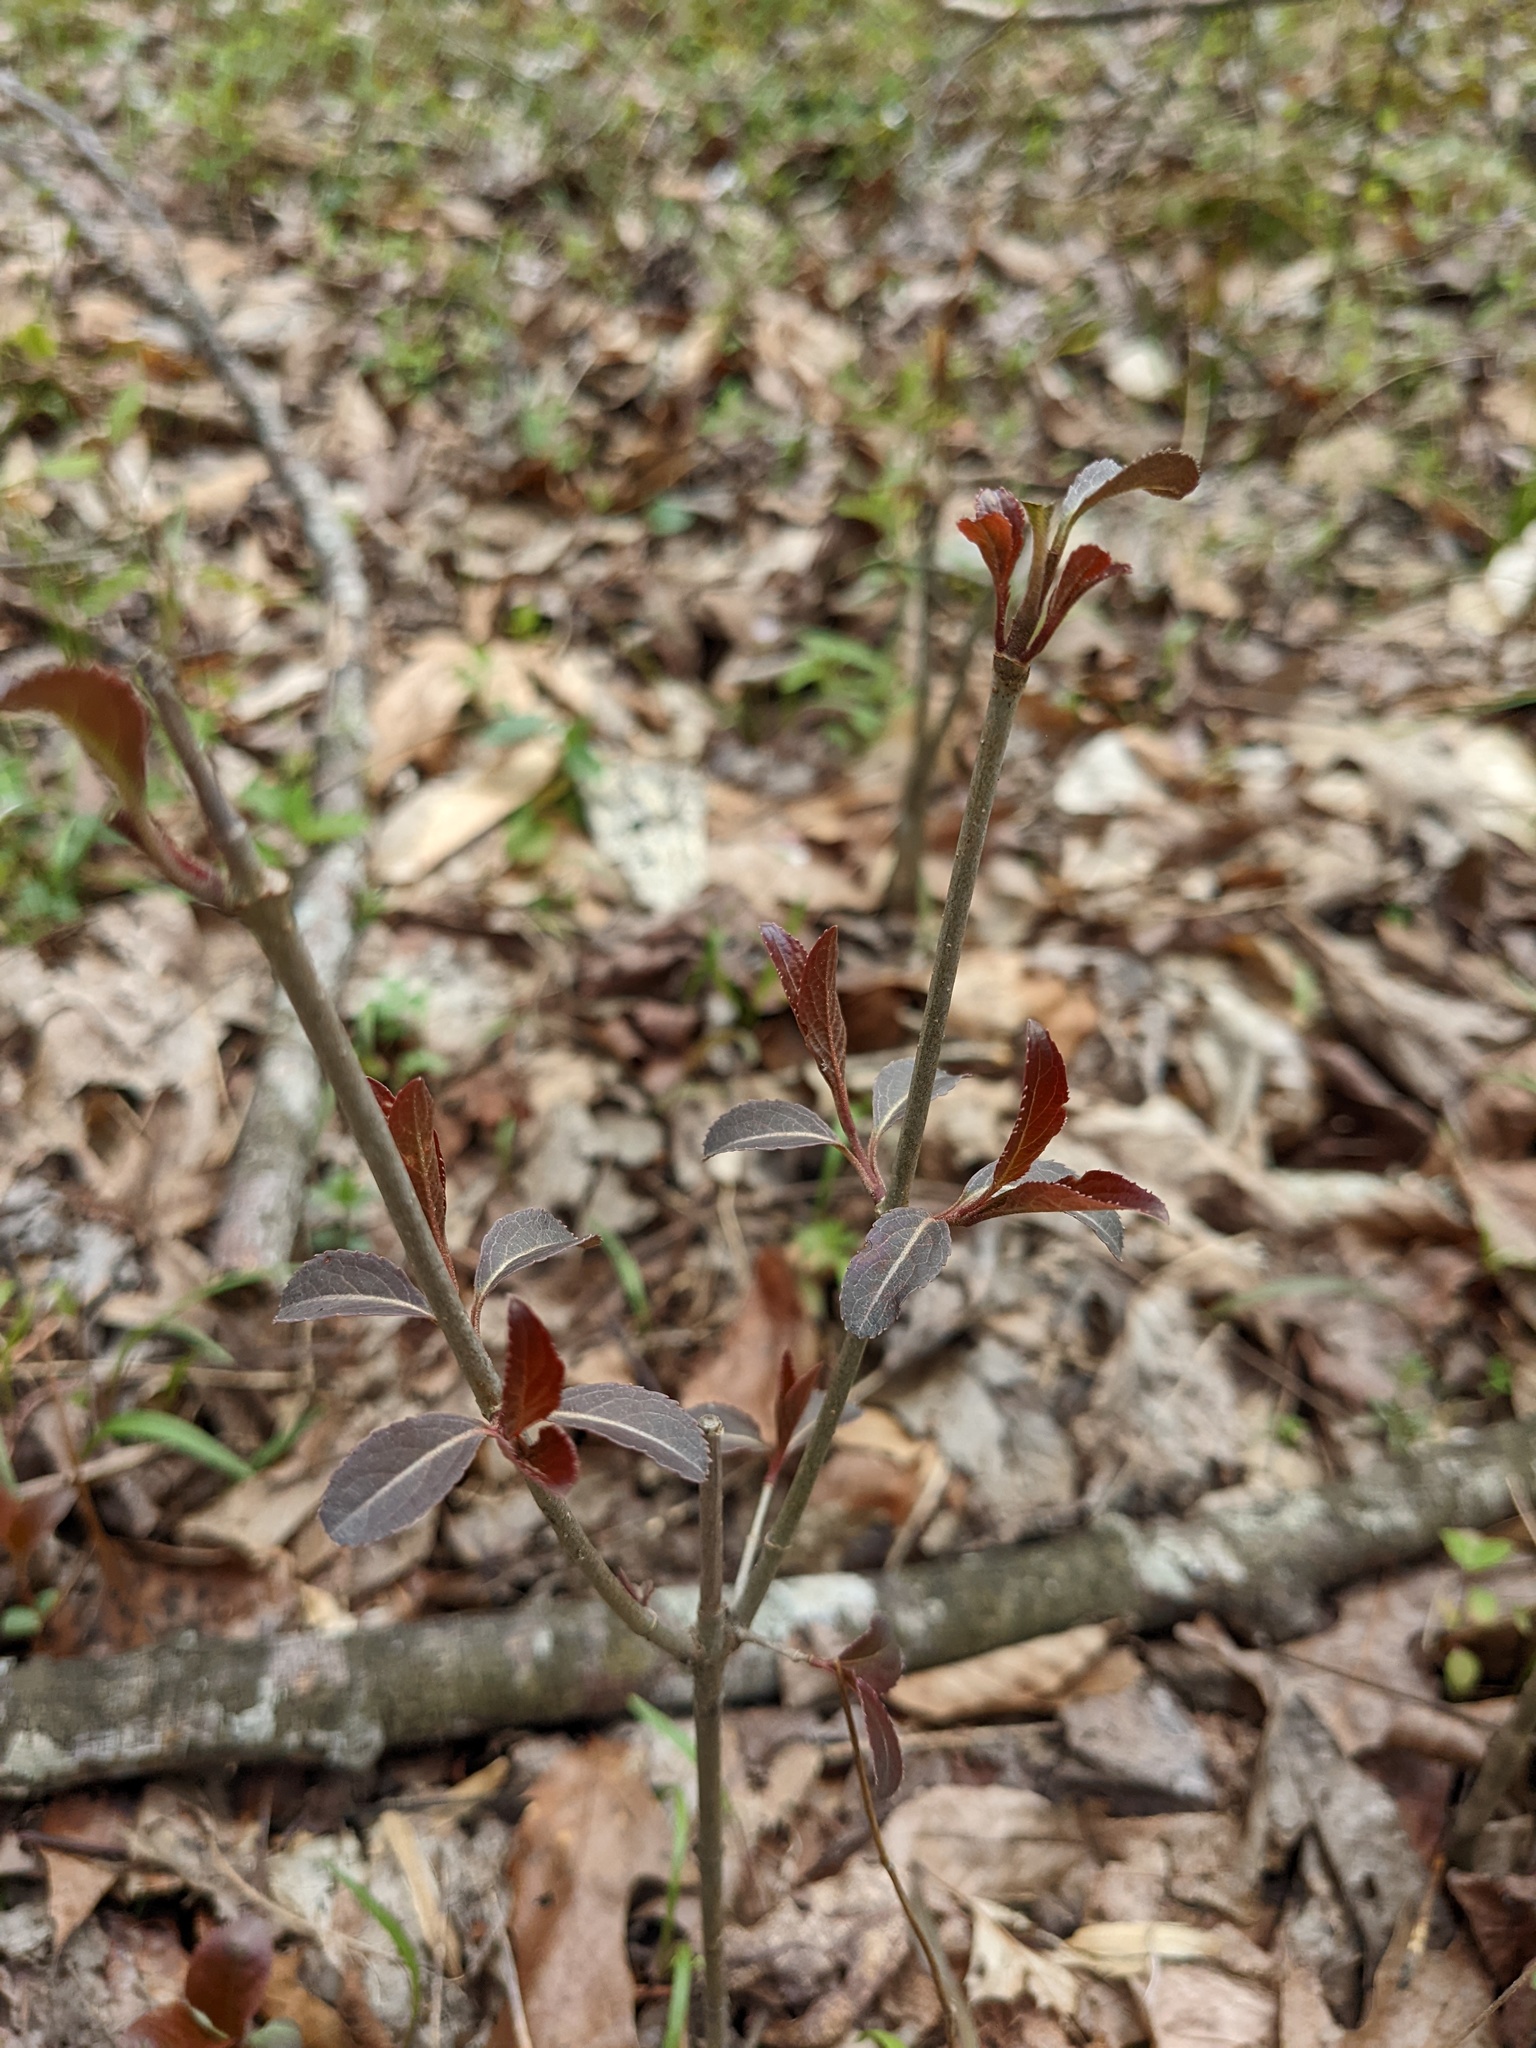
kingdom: Plantae
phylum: Tracheophyta
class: Magnoliopsida
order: Celastrales
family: Celastraceae
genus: Euonymus
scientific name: Euonymus alatus
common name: Winged euonymus
